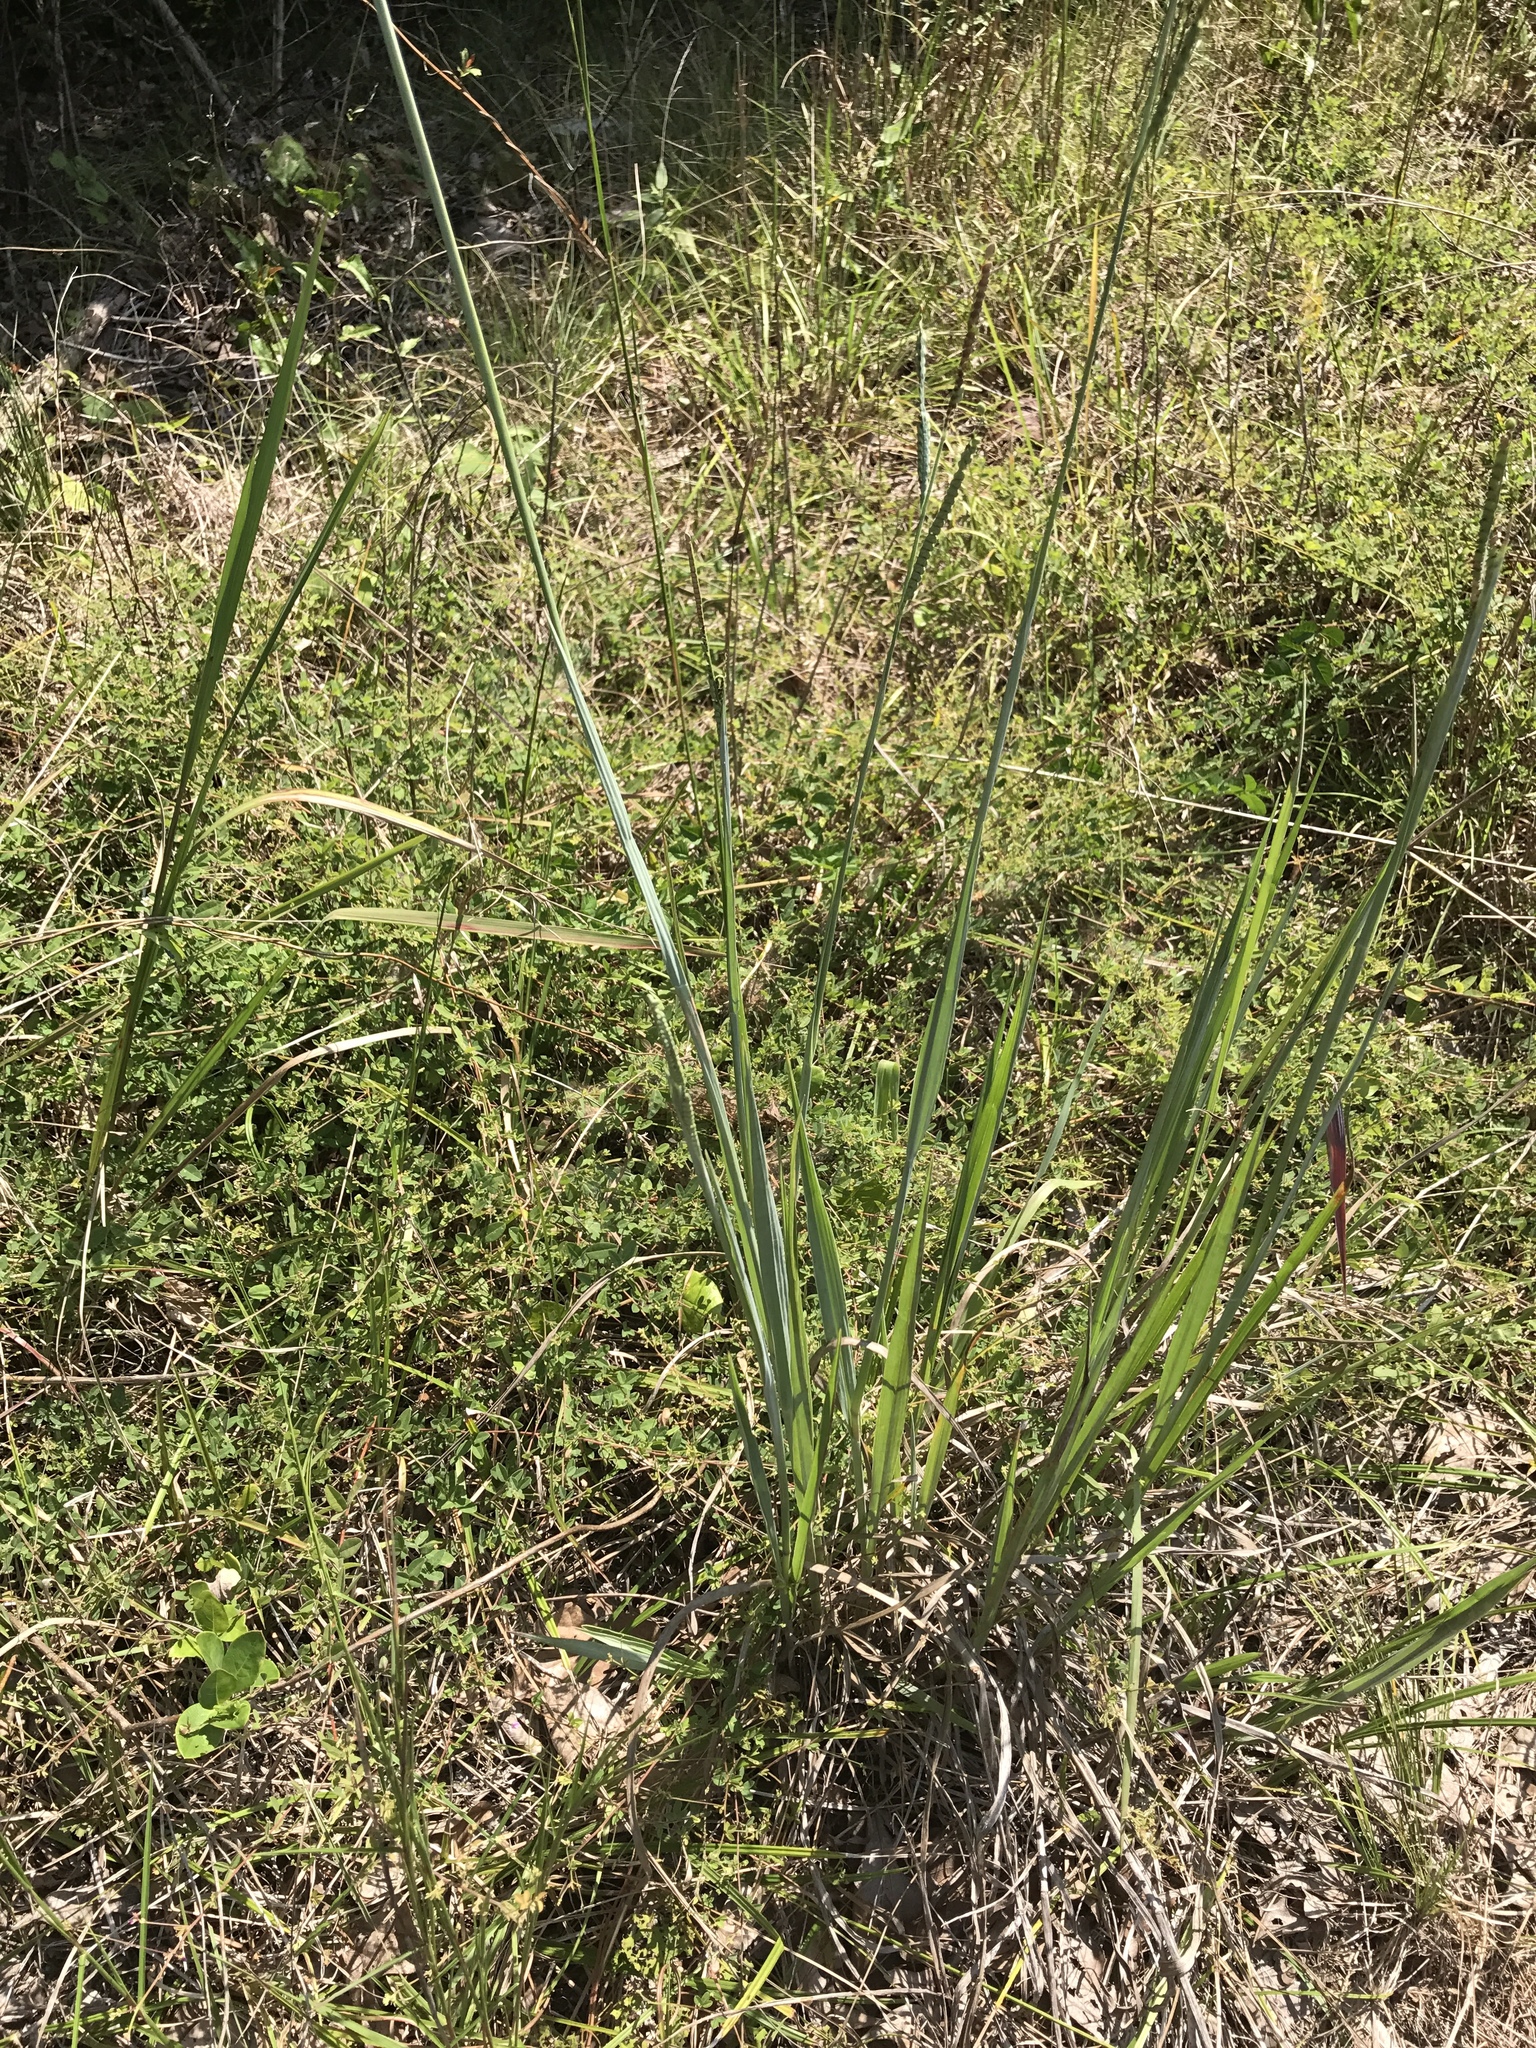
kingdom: Plantae
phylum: Tracheophyta
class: Liliopsida
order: Poales
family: Poaceae
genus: Paspalum
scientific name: Paspalum floridanum
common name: Florida paspalum
